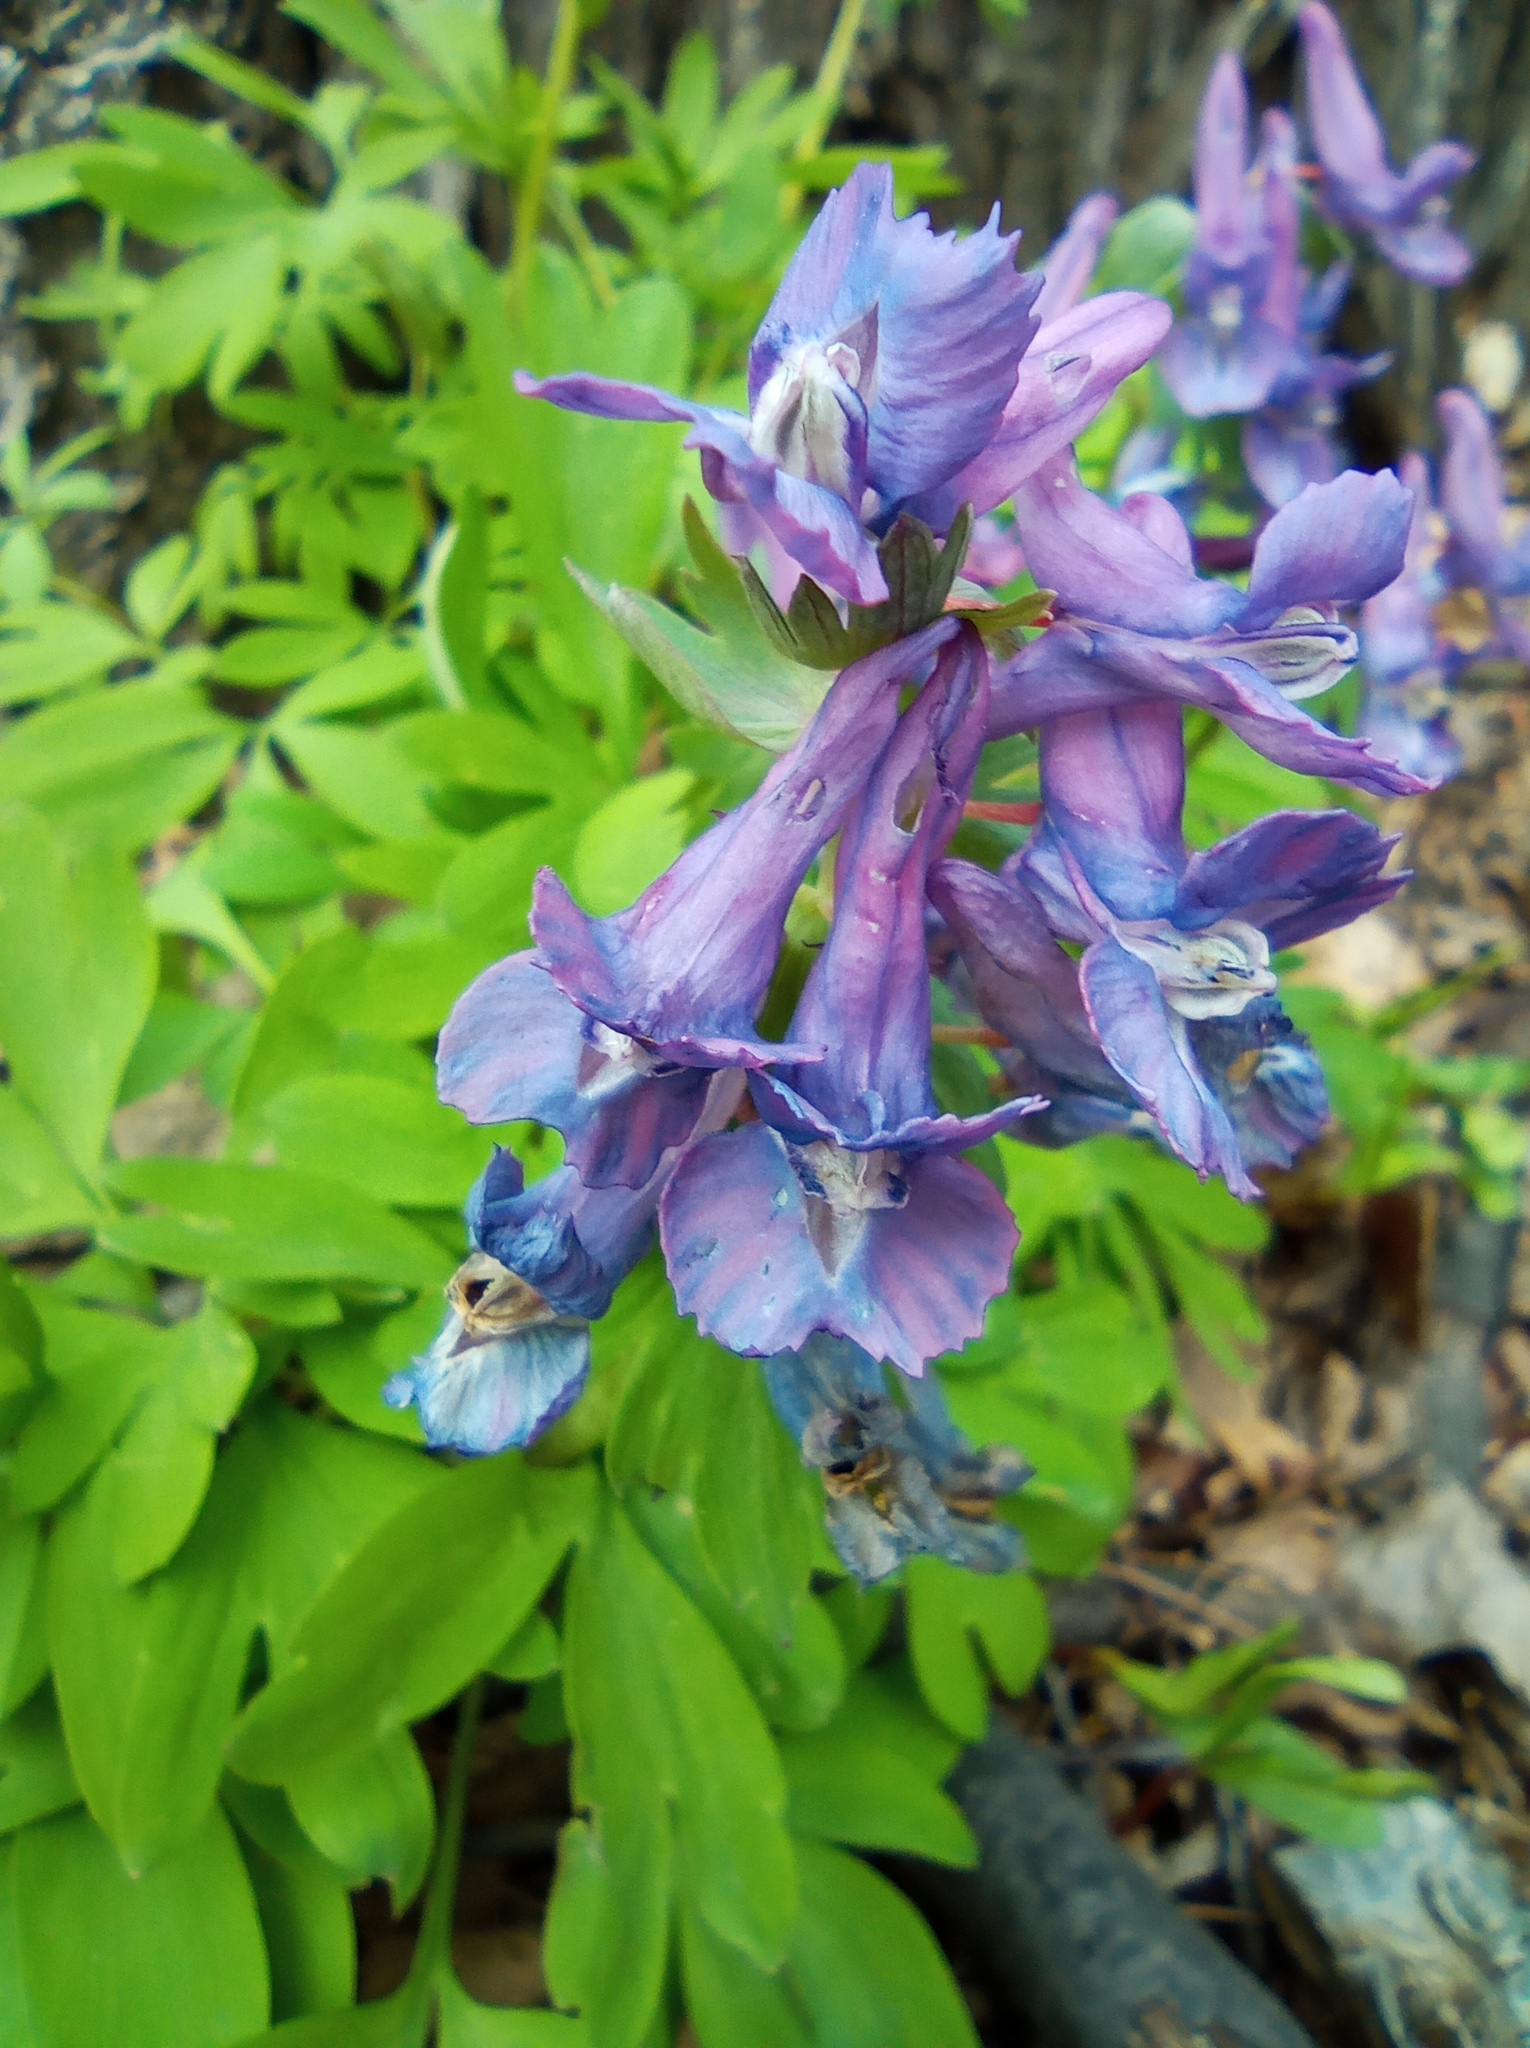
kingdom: Plantae
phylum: Tracheophyta
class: Magnoliopsida
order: Ranunculales
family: Papaveraceae
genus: Corydalis
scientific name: Corydalis solida
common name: Bird-in-a-bush
